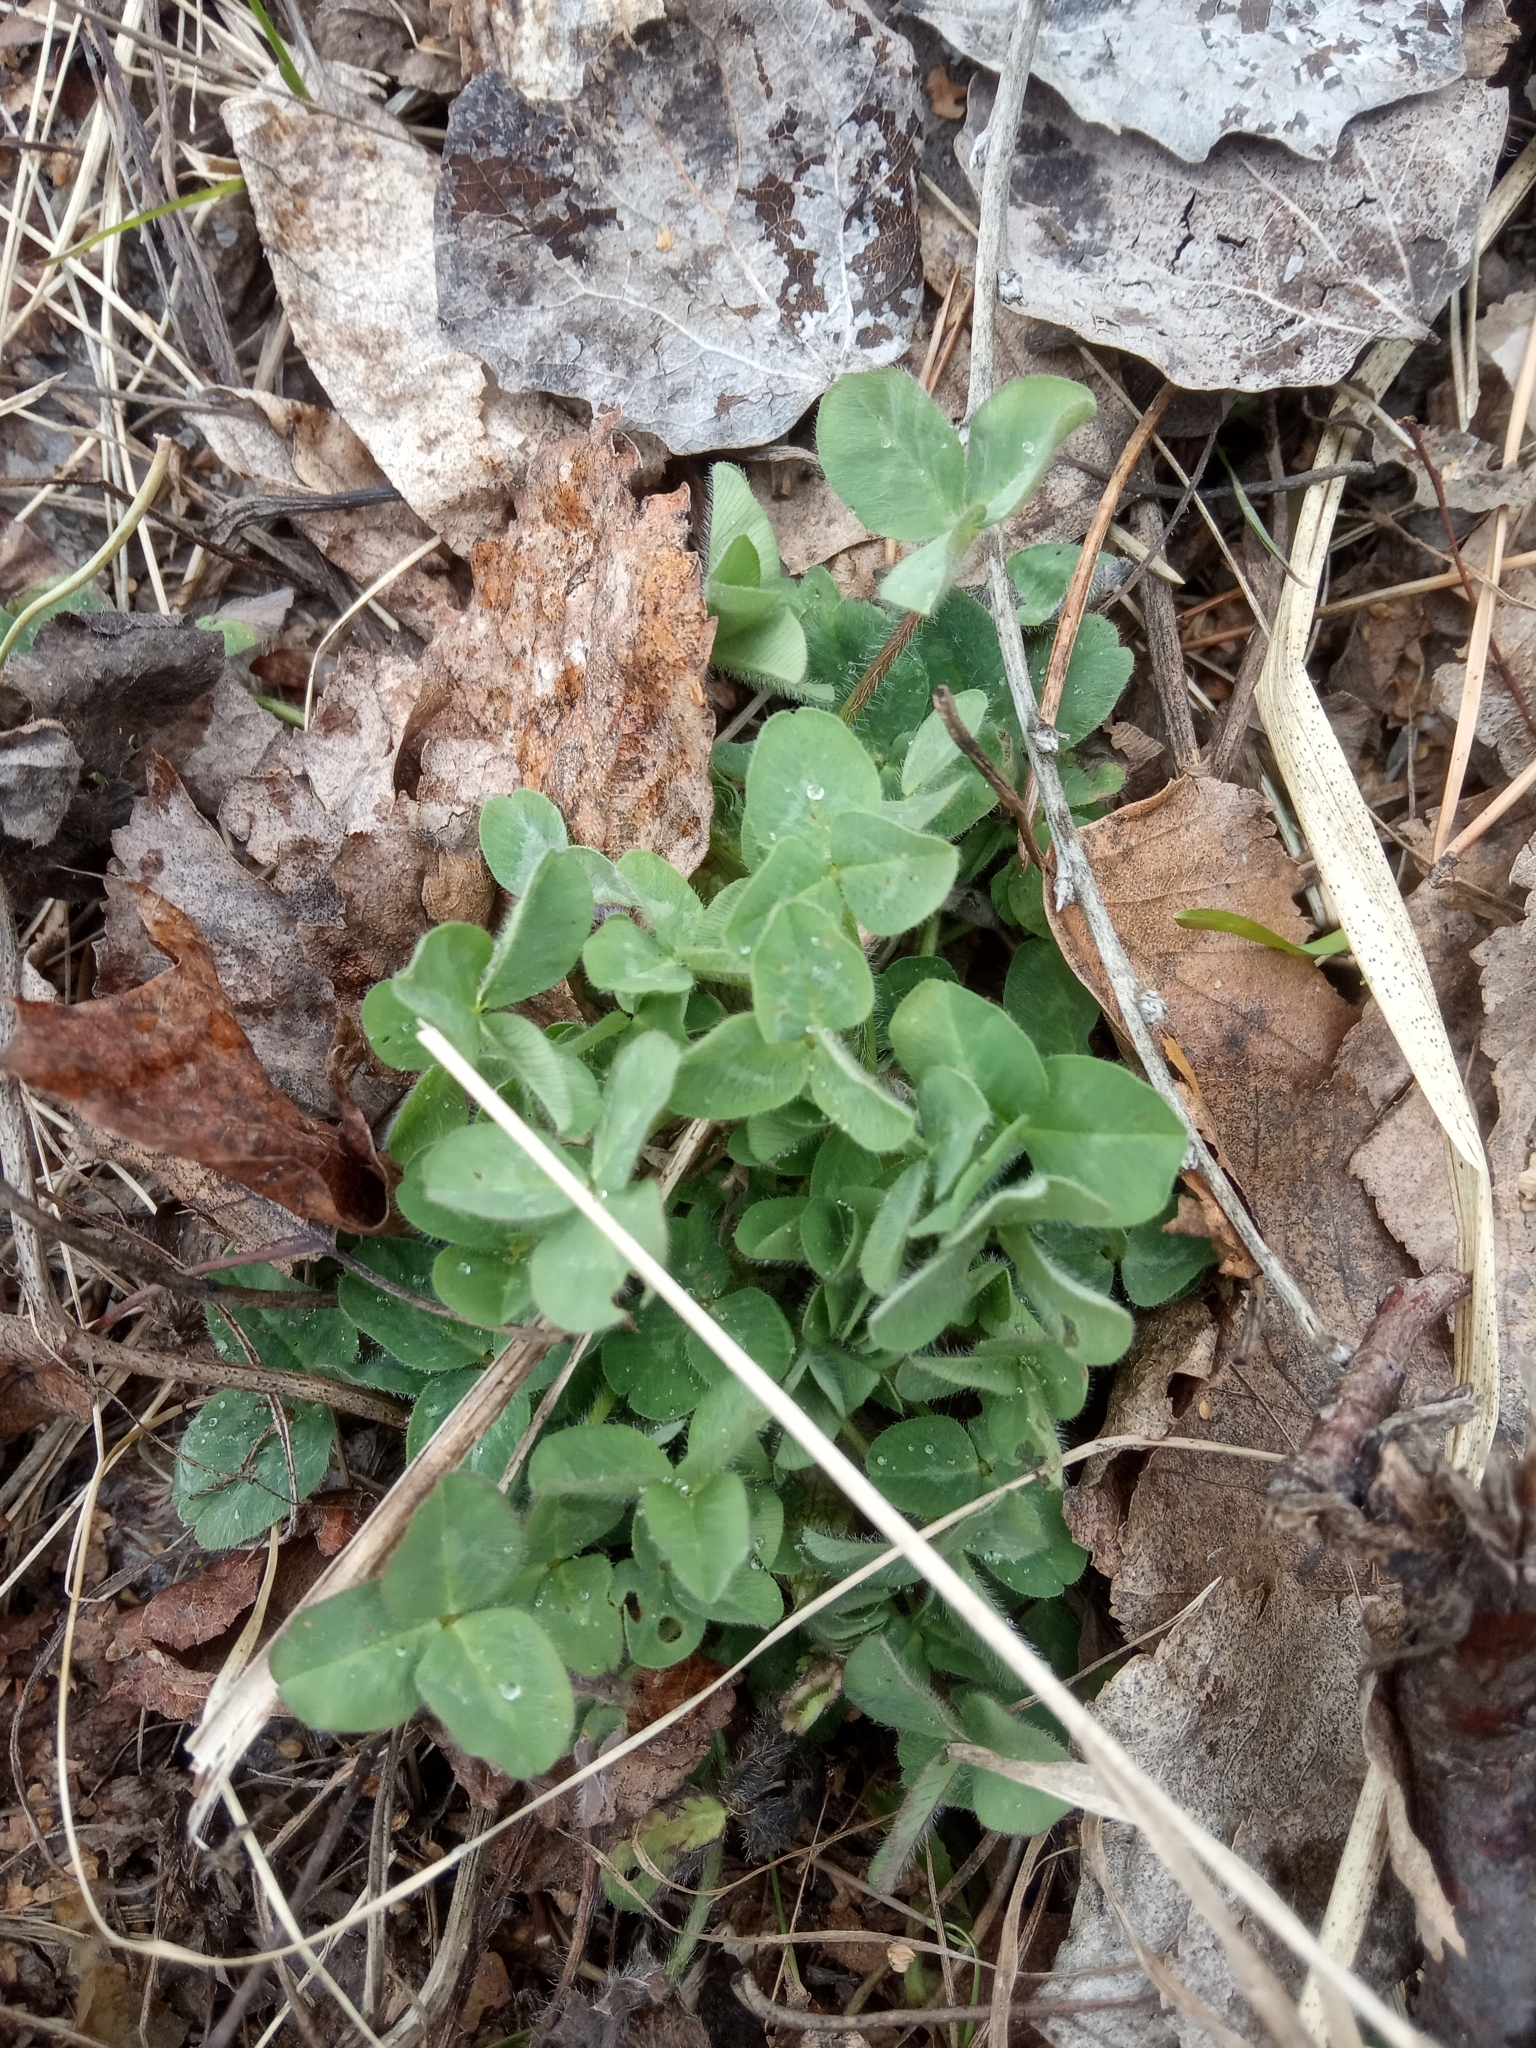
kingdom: Plantae
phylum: Tracheophyta
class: Magnoliopsida
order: Fabales
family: Fabaceae
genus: Trifolium
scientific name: Trifolium repens
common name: White clover
